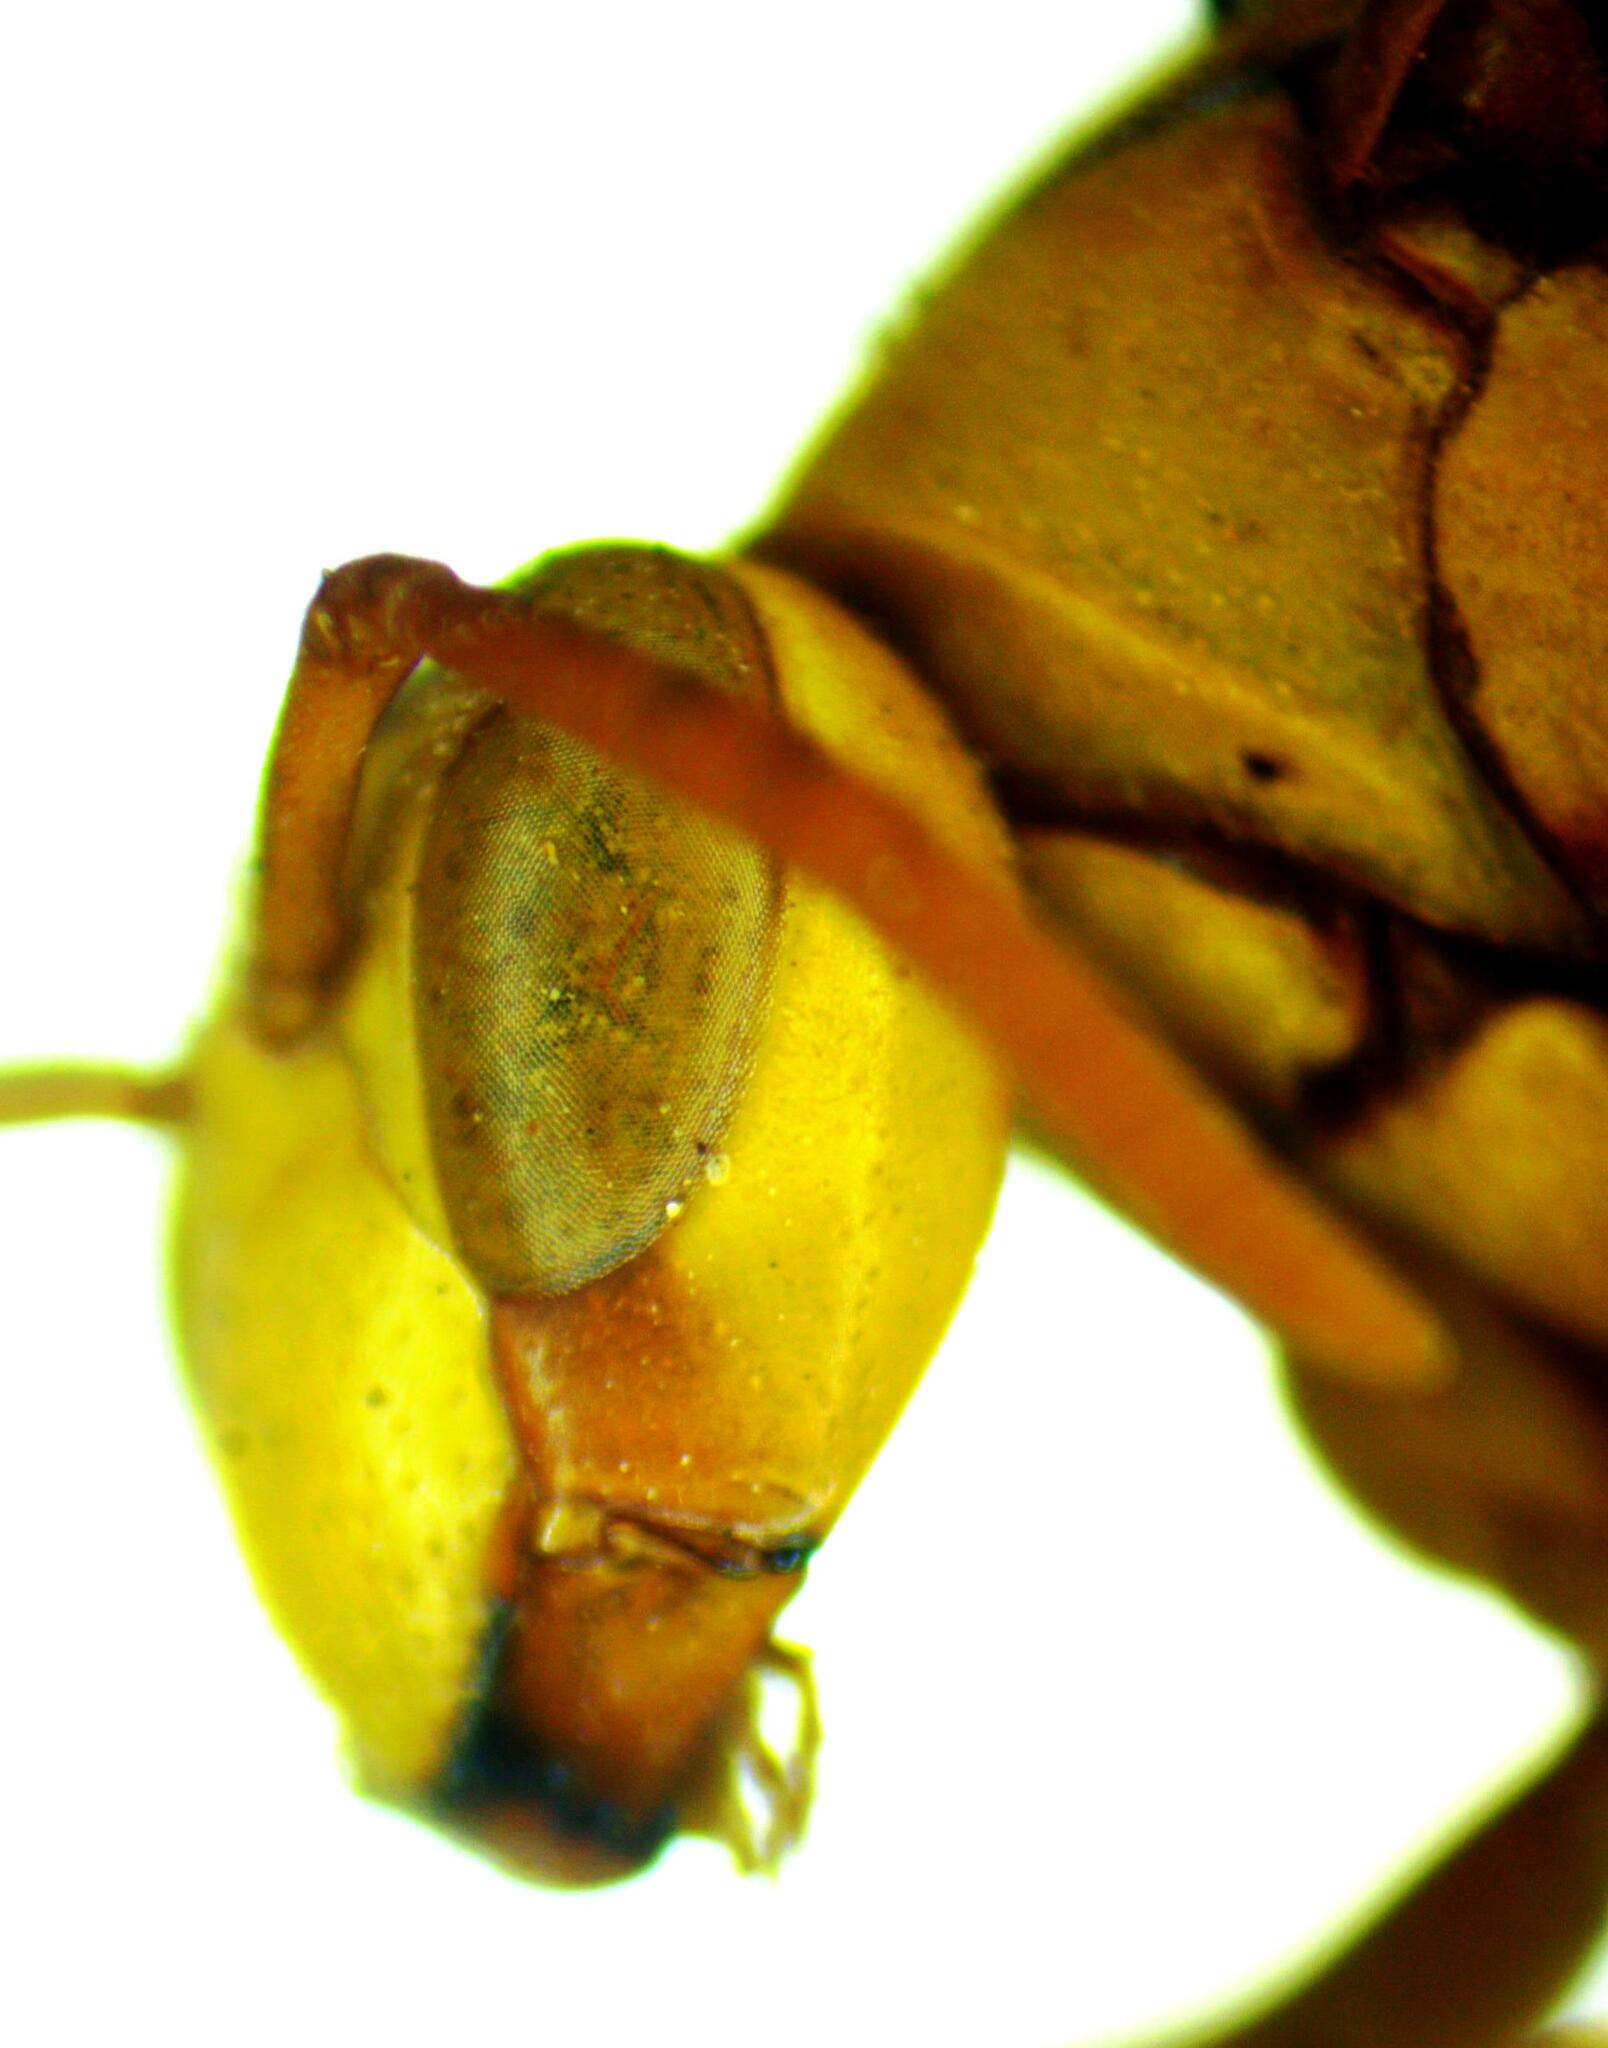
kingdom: Animalia
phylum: Arthropoda
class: Insecta
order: Hymenoptera
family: Eumenidae
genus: Polistes
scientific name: Polistes major
